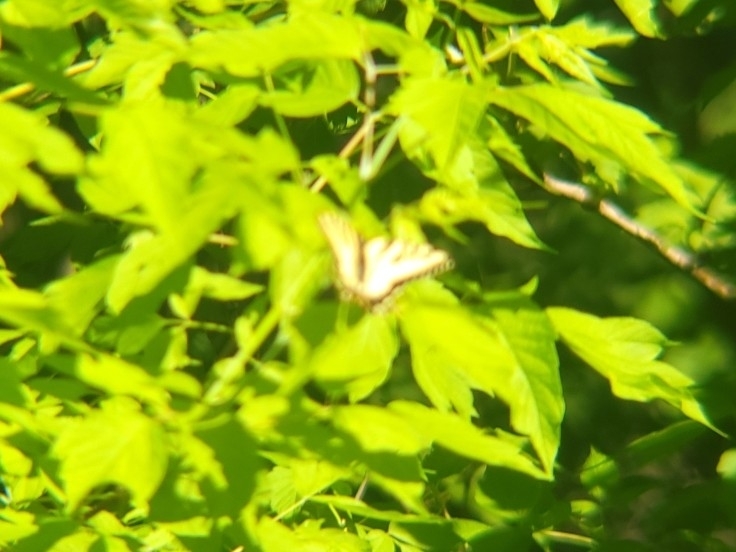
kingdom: Animalia
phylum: Arthropoda
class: Insecta
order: Lepidoptera
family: Papilionidae
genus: Papilio
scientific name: Papilio canadensis
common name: Canadian tiger swallowtail
